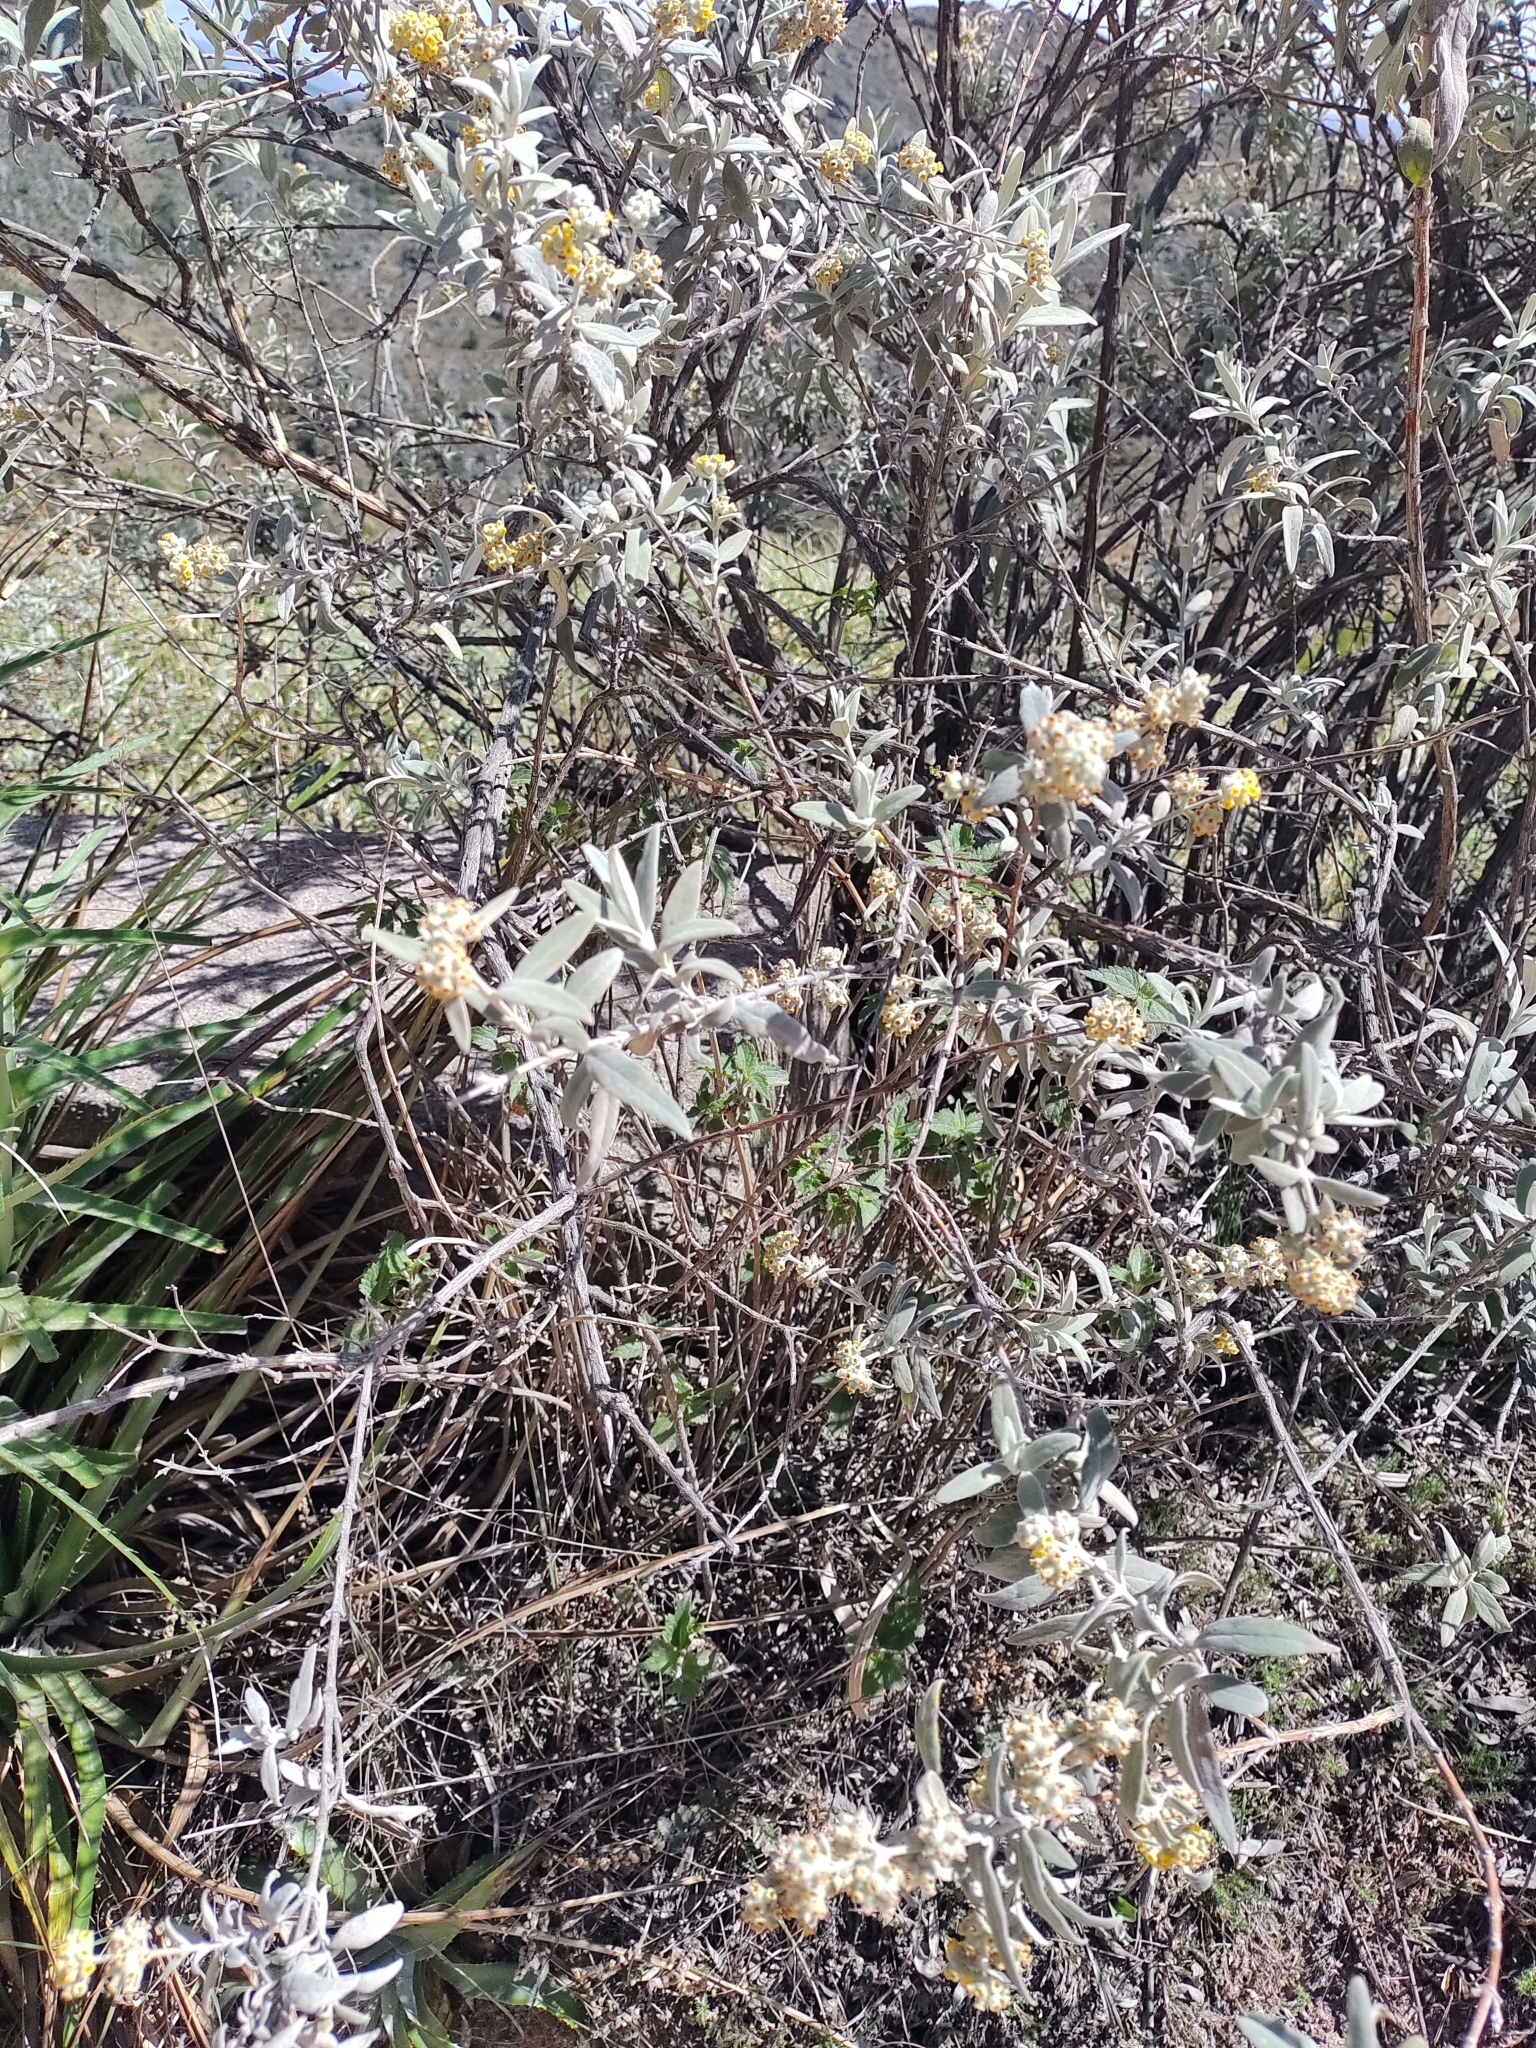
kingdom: Plantae
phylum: Tracheophyta
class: Magnoliopsida
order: Lamiales
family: Scrophulariaceae
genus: Buddleja
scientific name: Buddleja cordobensis
